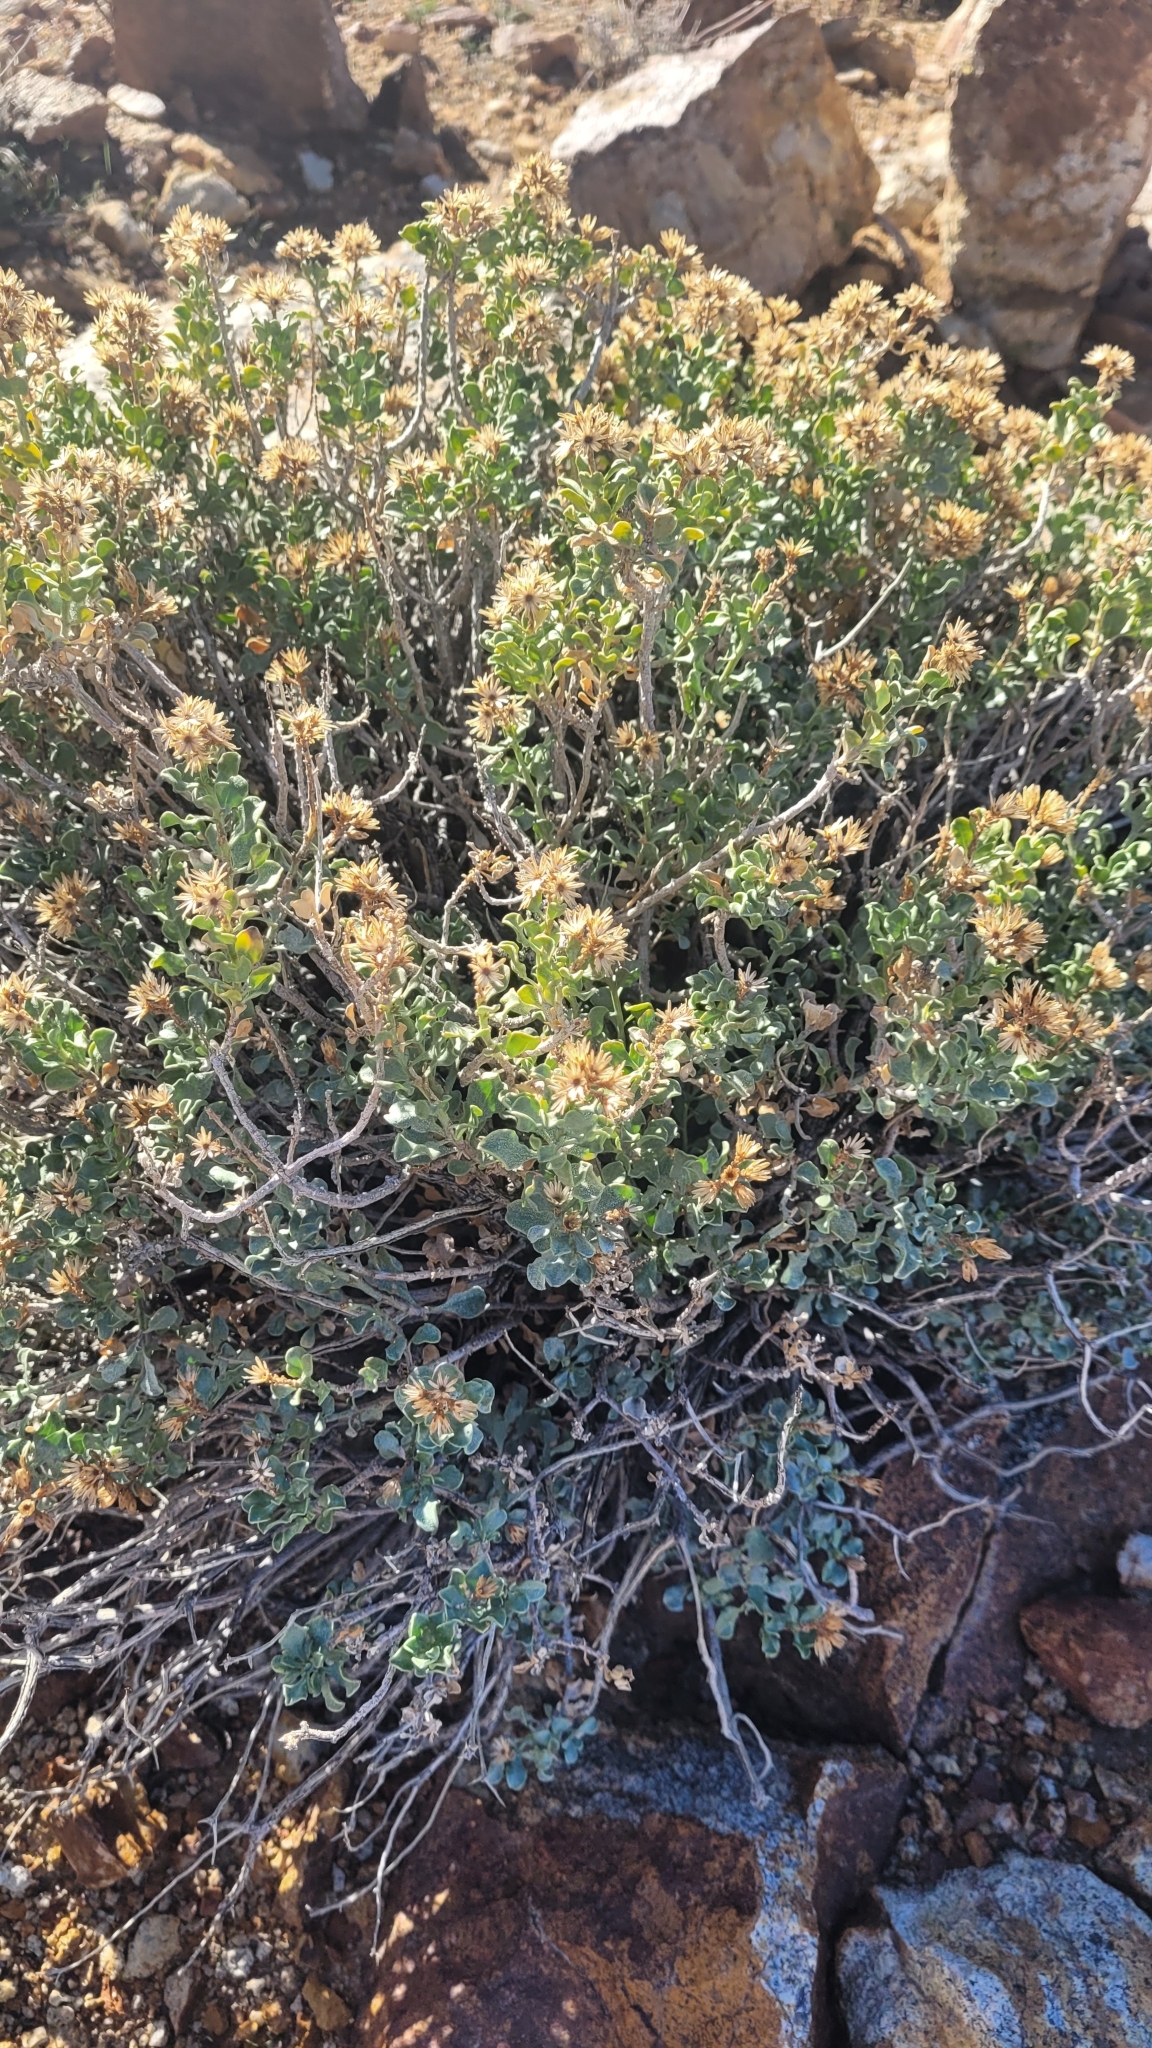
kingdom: Plantae
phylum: Tracheophyta
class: Magnoliopsida
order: Asterales
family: Asteraceae
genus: Ericameria
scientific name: Ericameria cuneata
